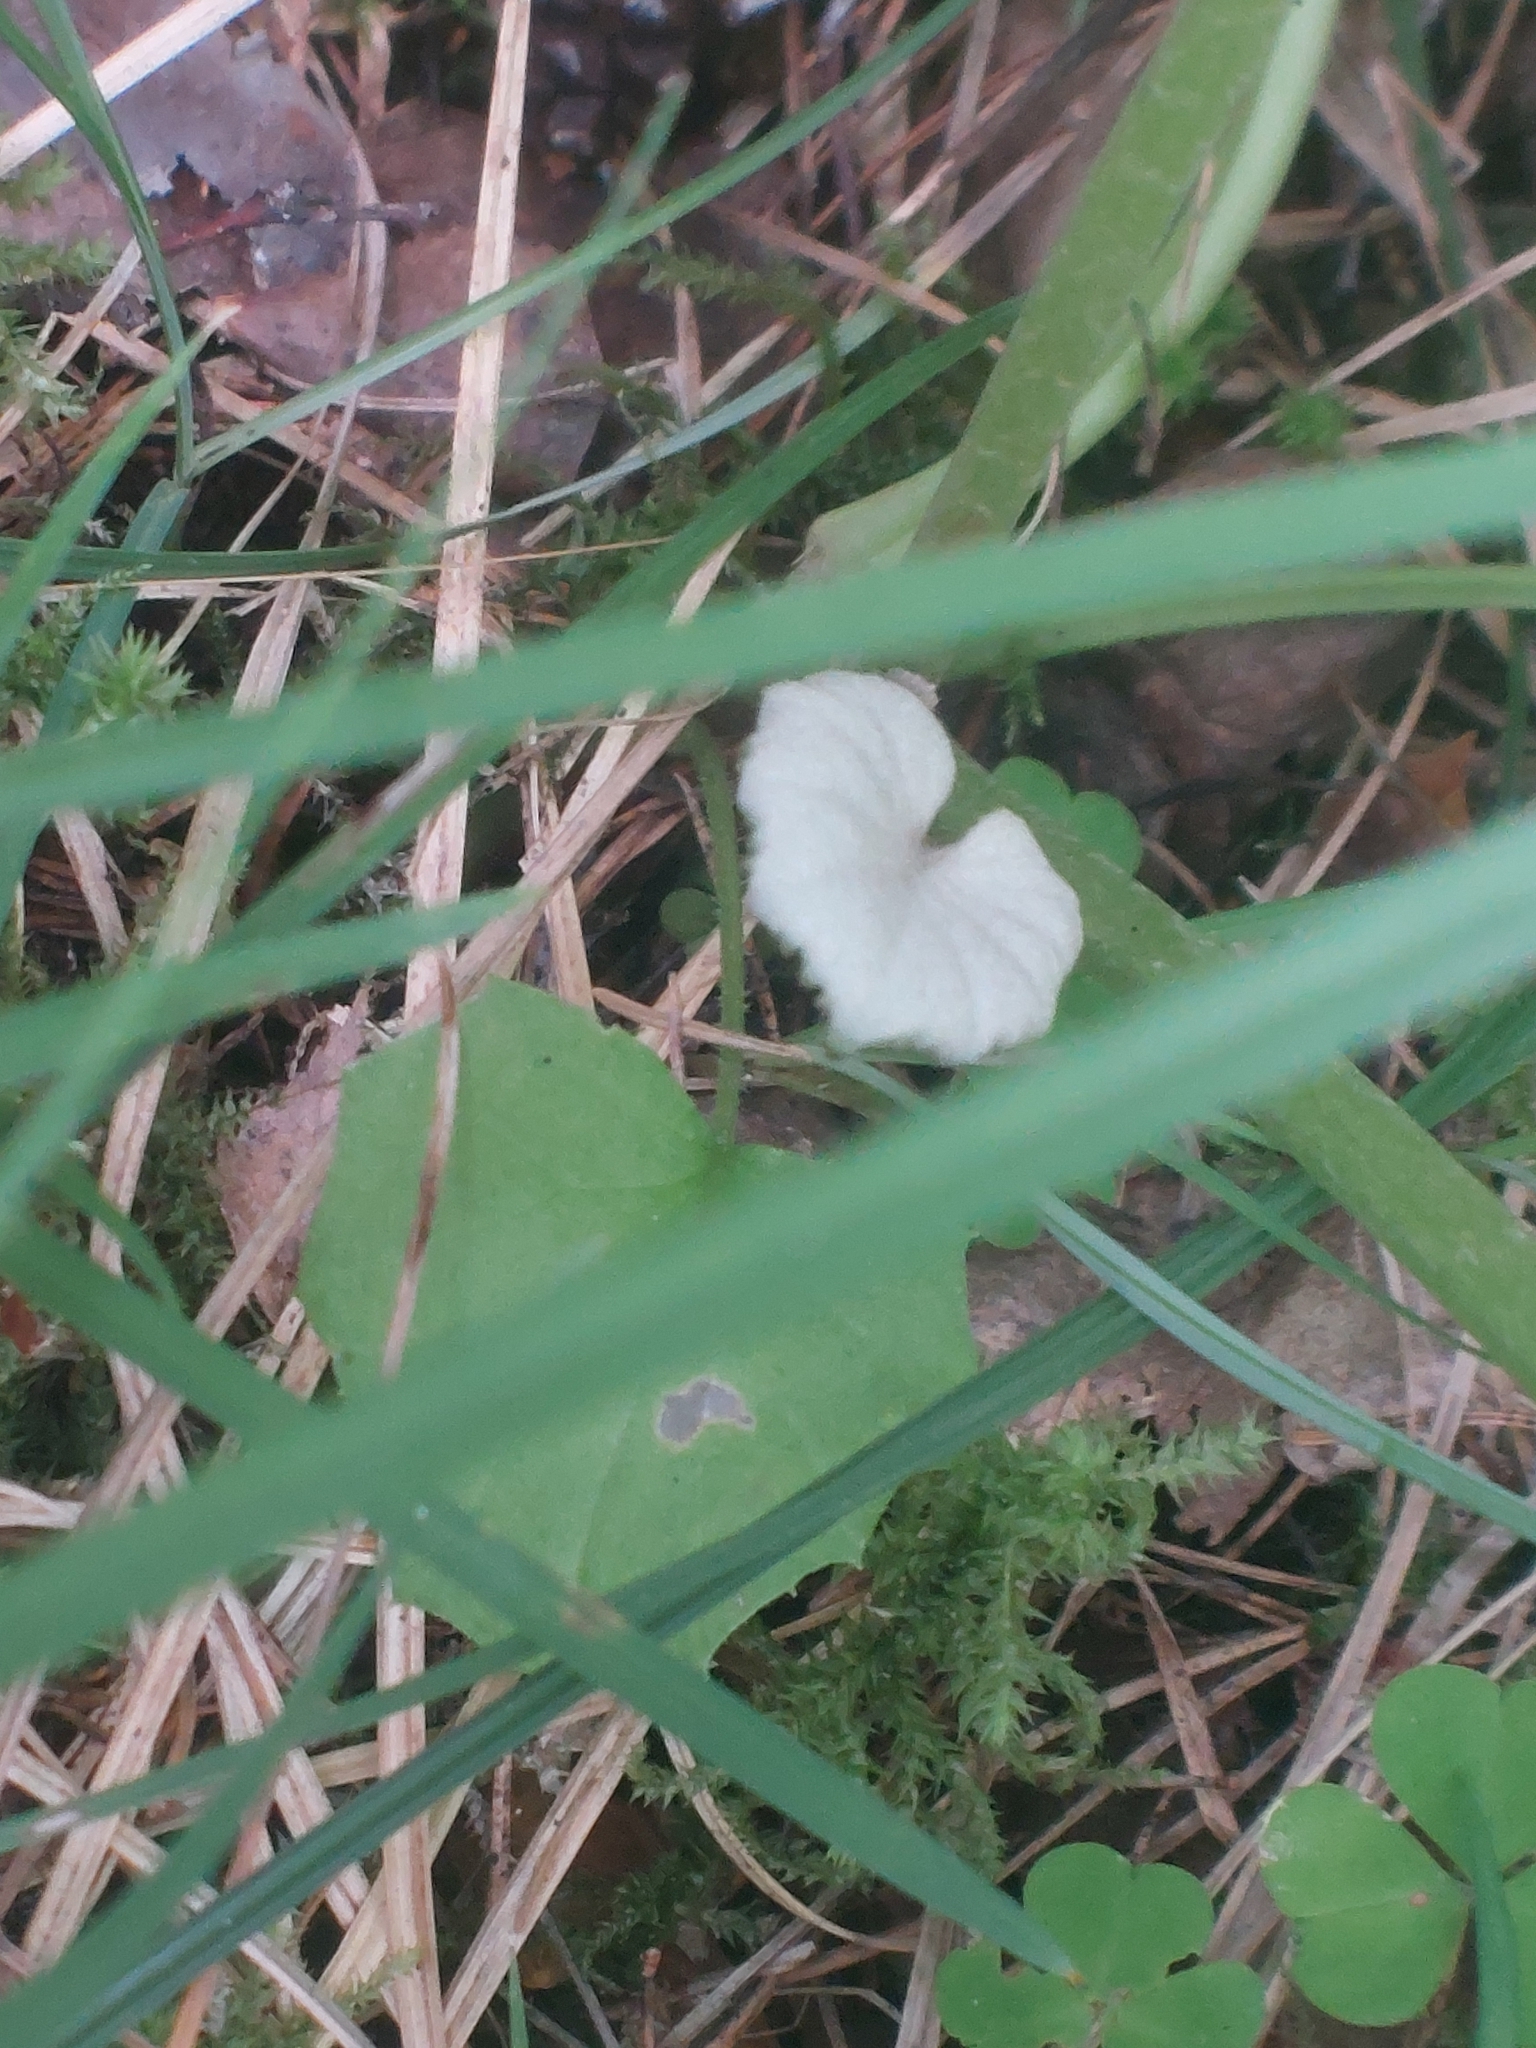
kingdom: Plantae
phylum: Tracheophyta
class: Magnoliopsida
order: Asterales
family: Asteraceae
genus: Tussilago
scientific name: Tussilago farfara
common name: Coltsfoot
